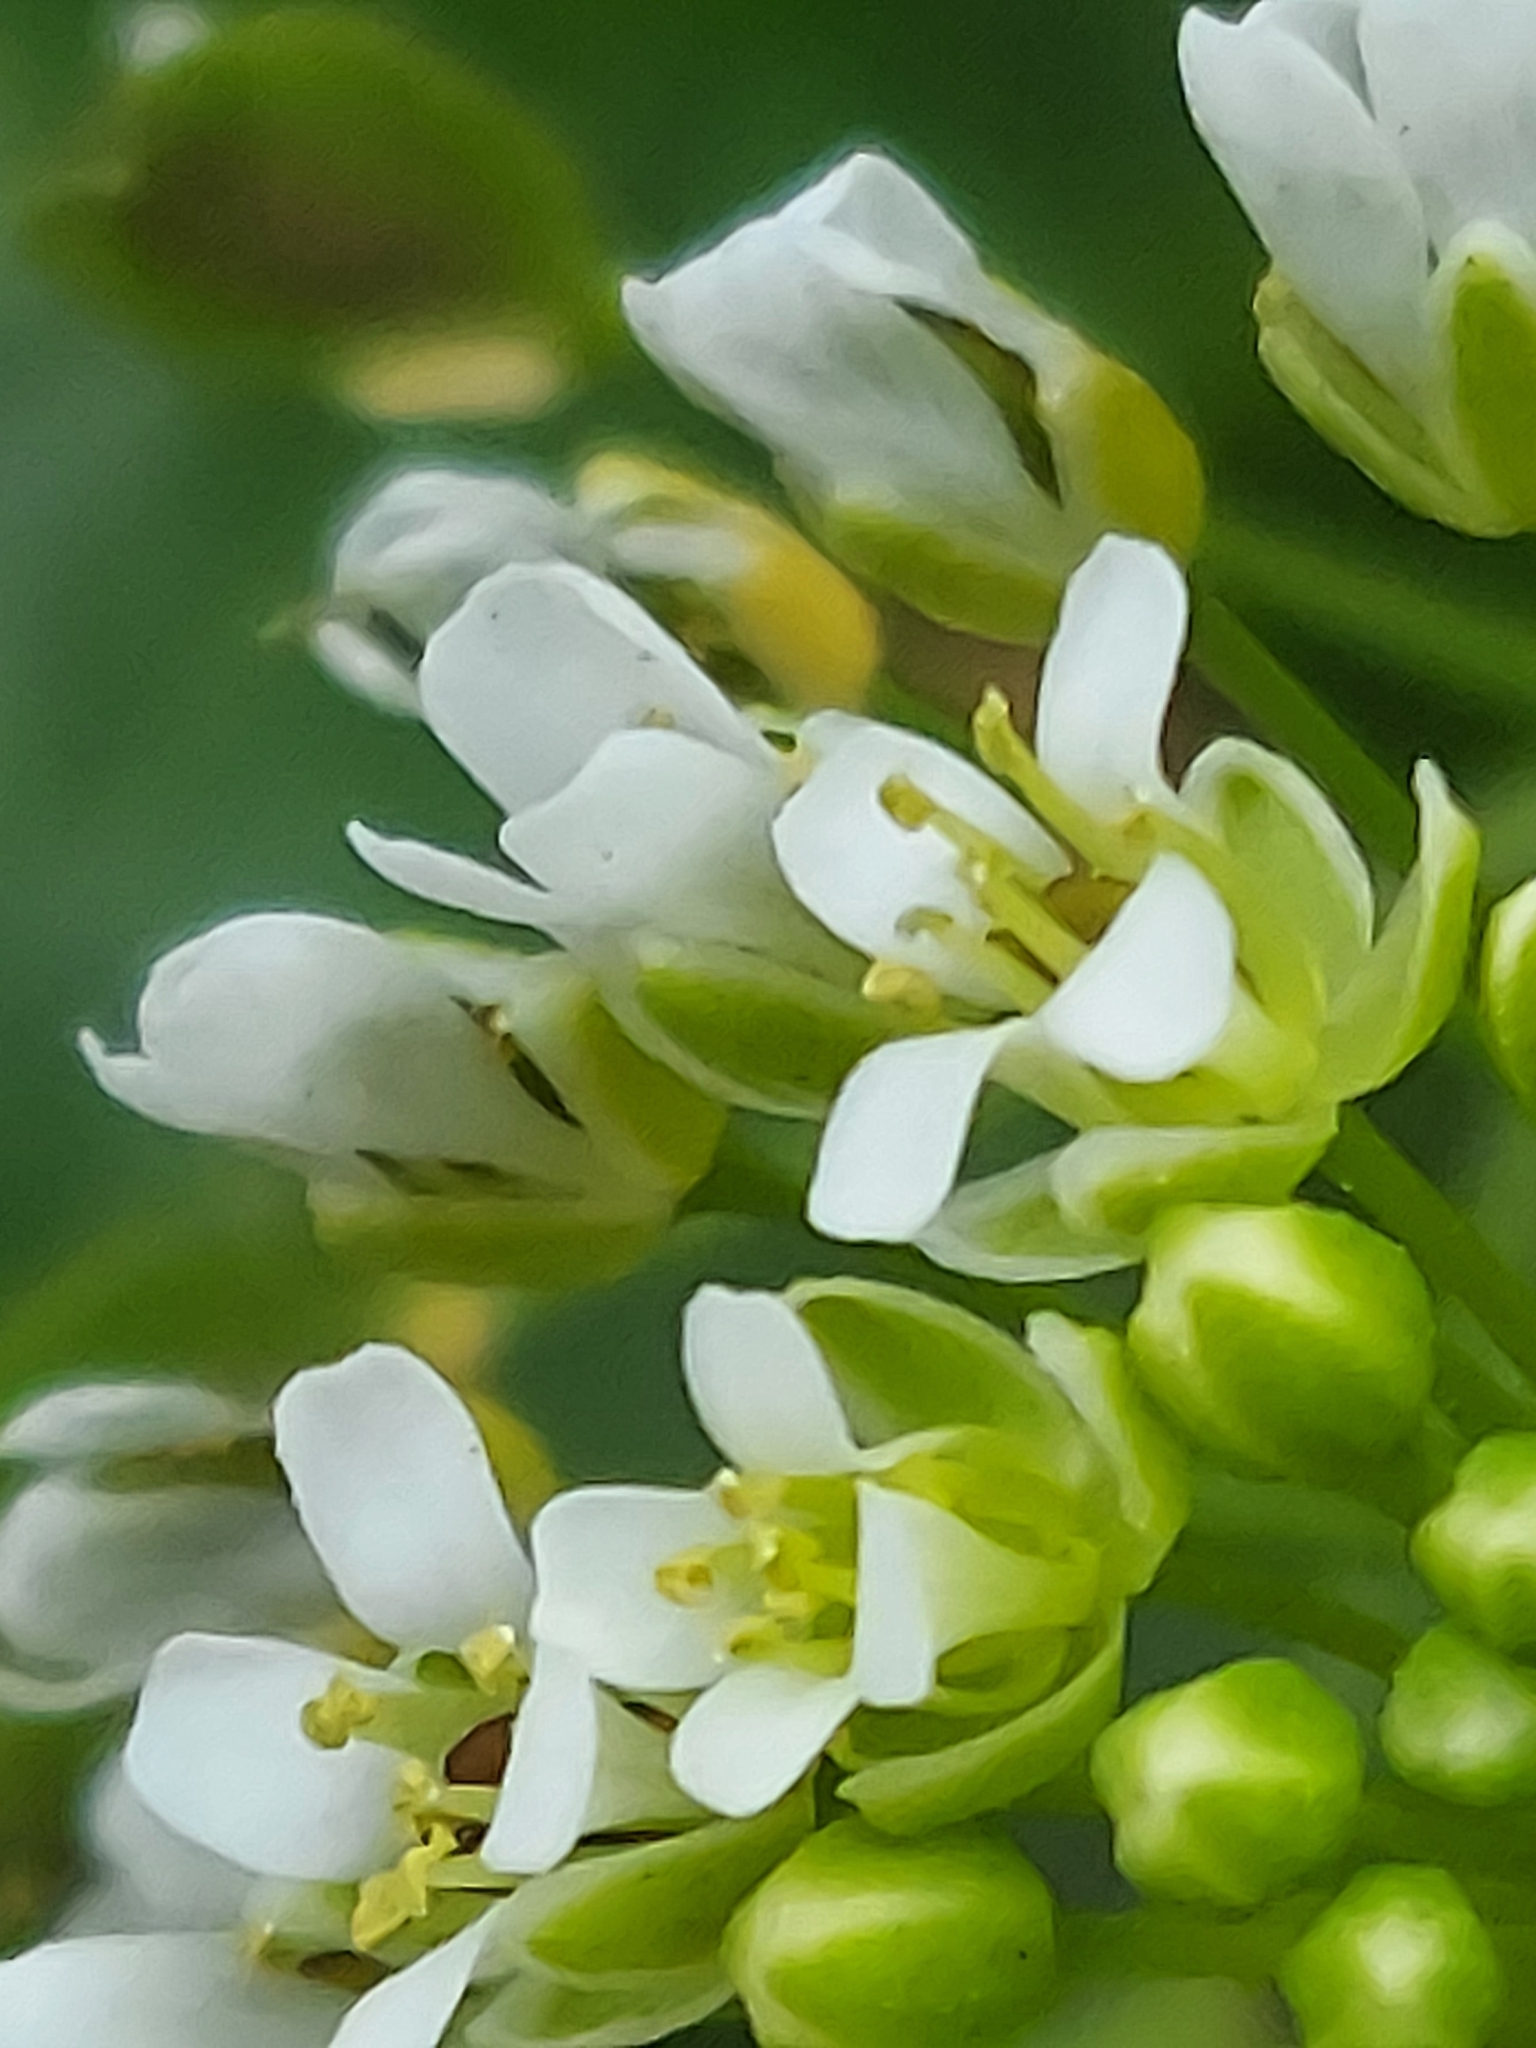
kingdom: Plantae
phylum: Tracheophyta
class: Magnoliopsida
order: Brassicales
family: Brassicaceae
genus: Thlaspi
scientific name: Thlaspi arvense
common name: Field pennycress
